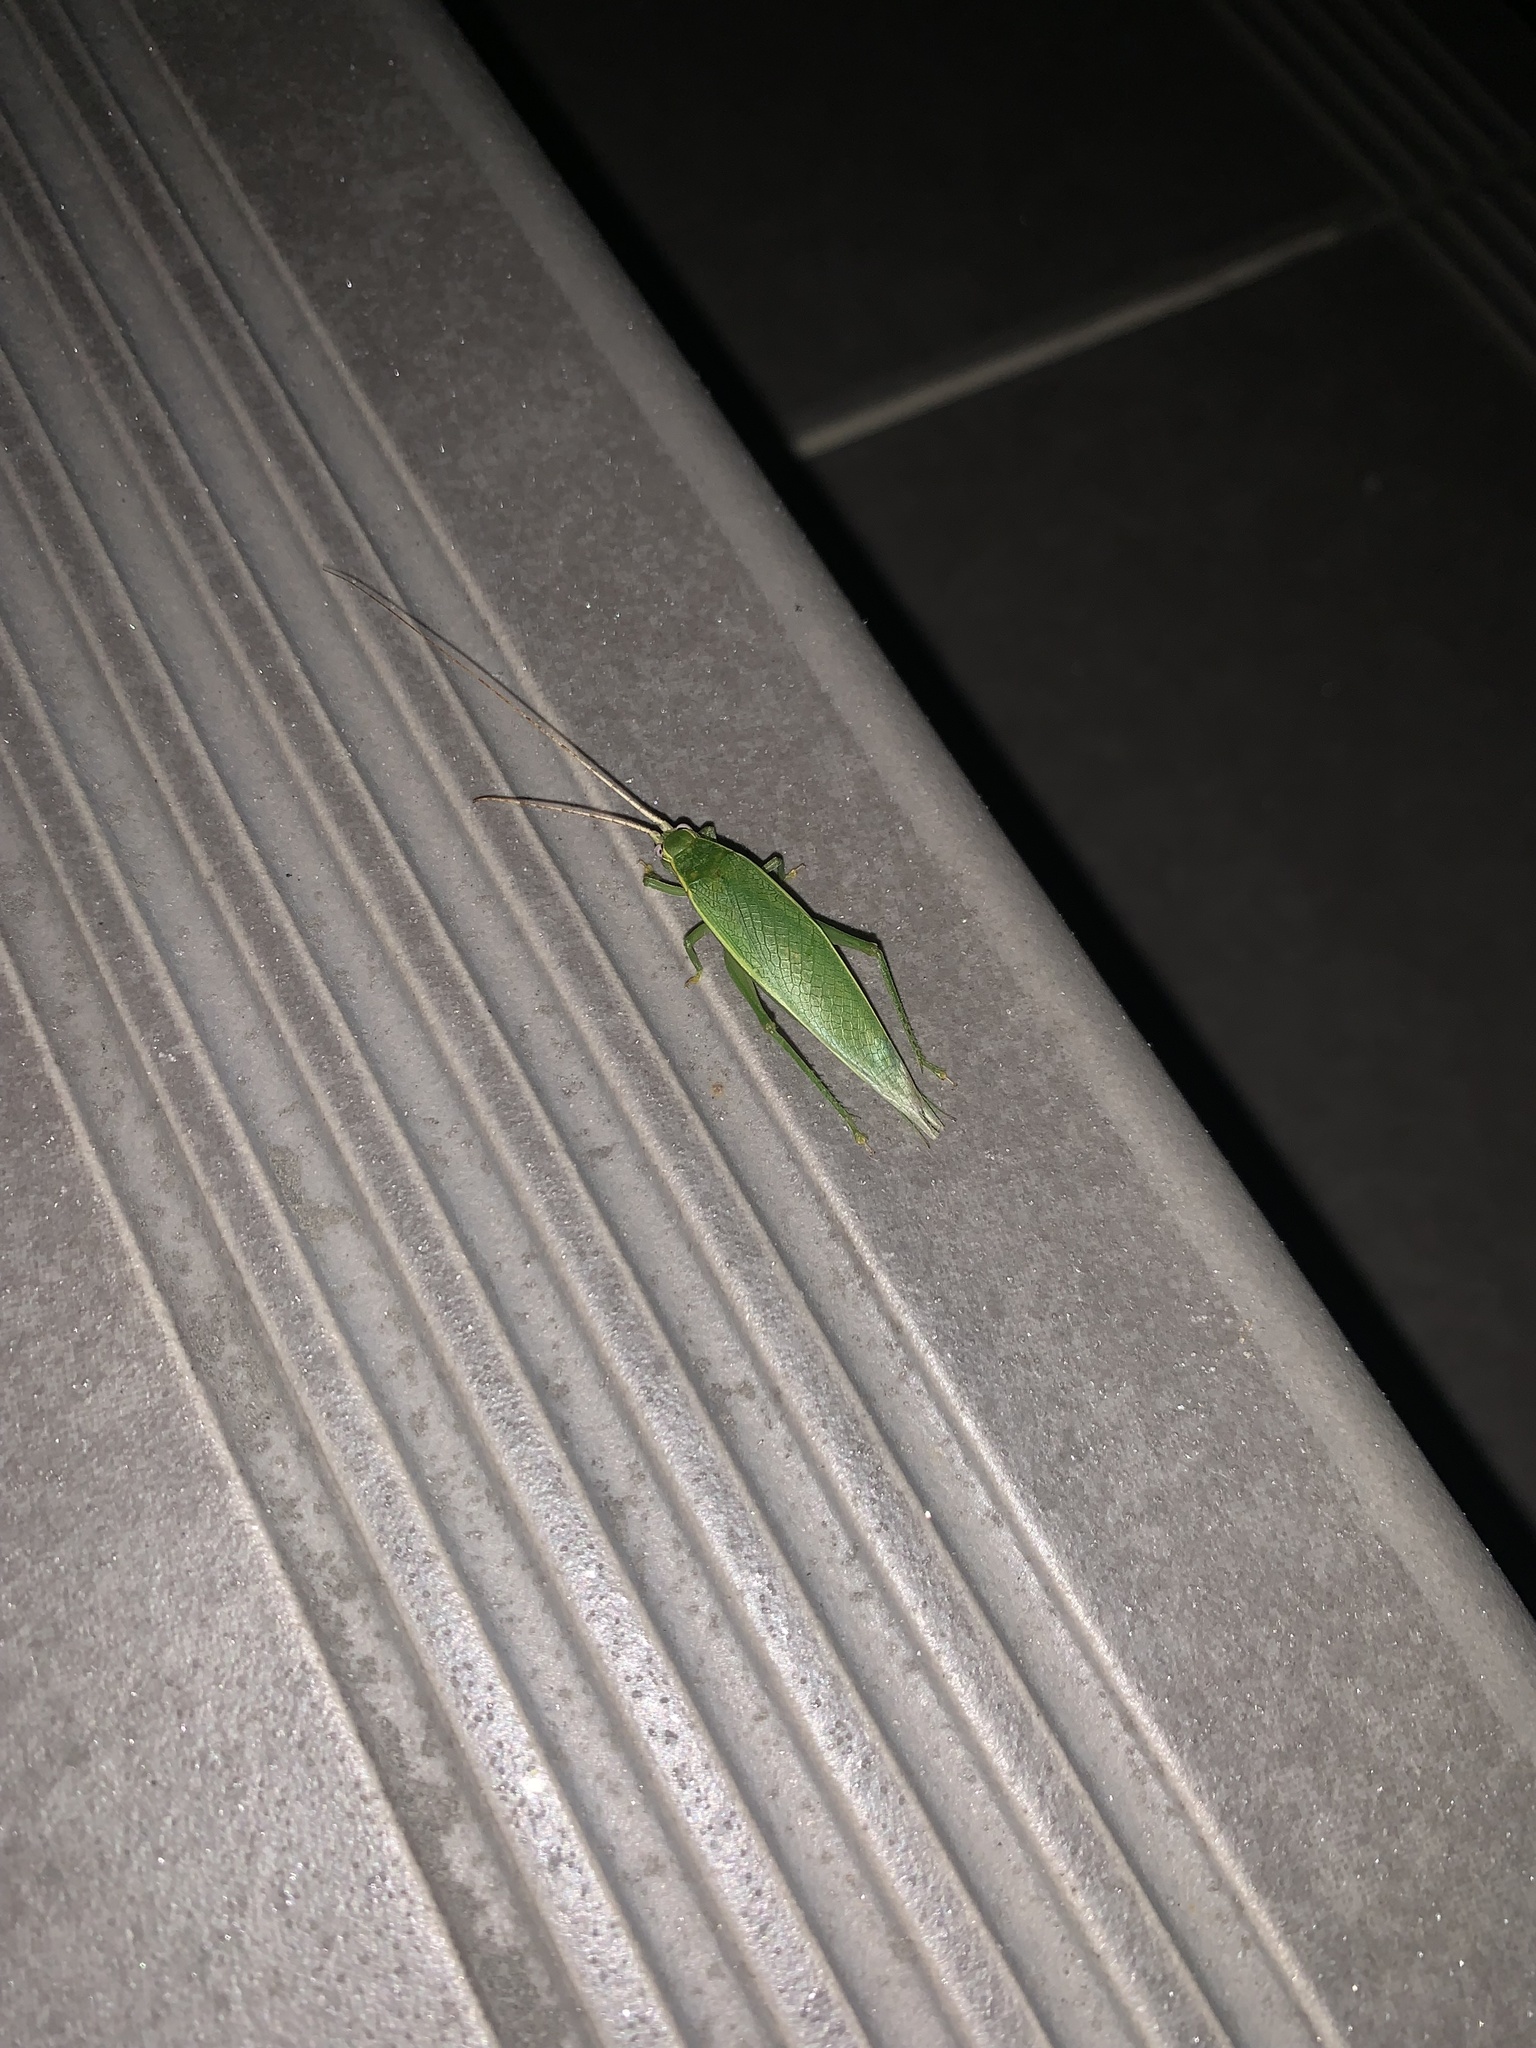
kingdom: Animalia
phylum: Arthropoda
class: Insecta
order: Orthoptera
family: Gryllidae
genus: Truljalia
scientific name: Truljalia hibinonis
